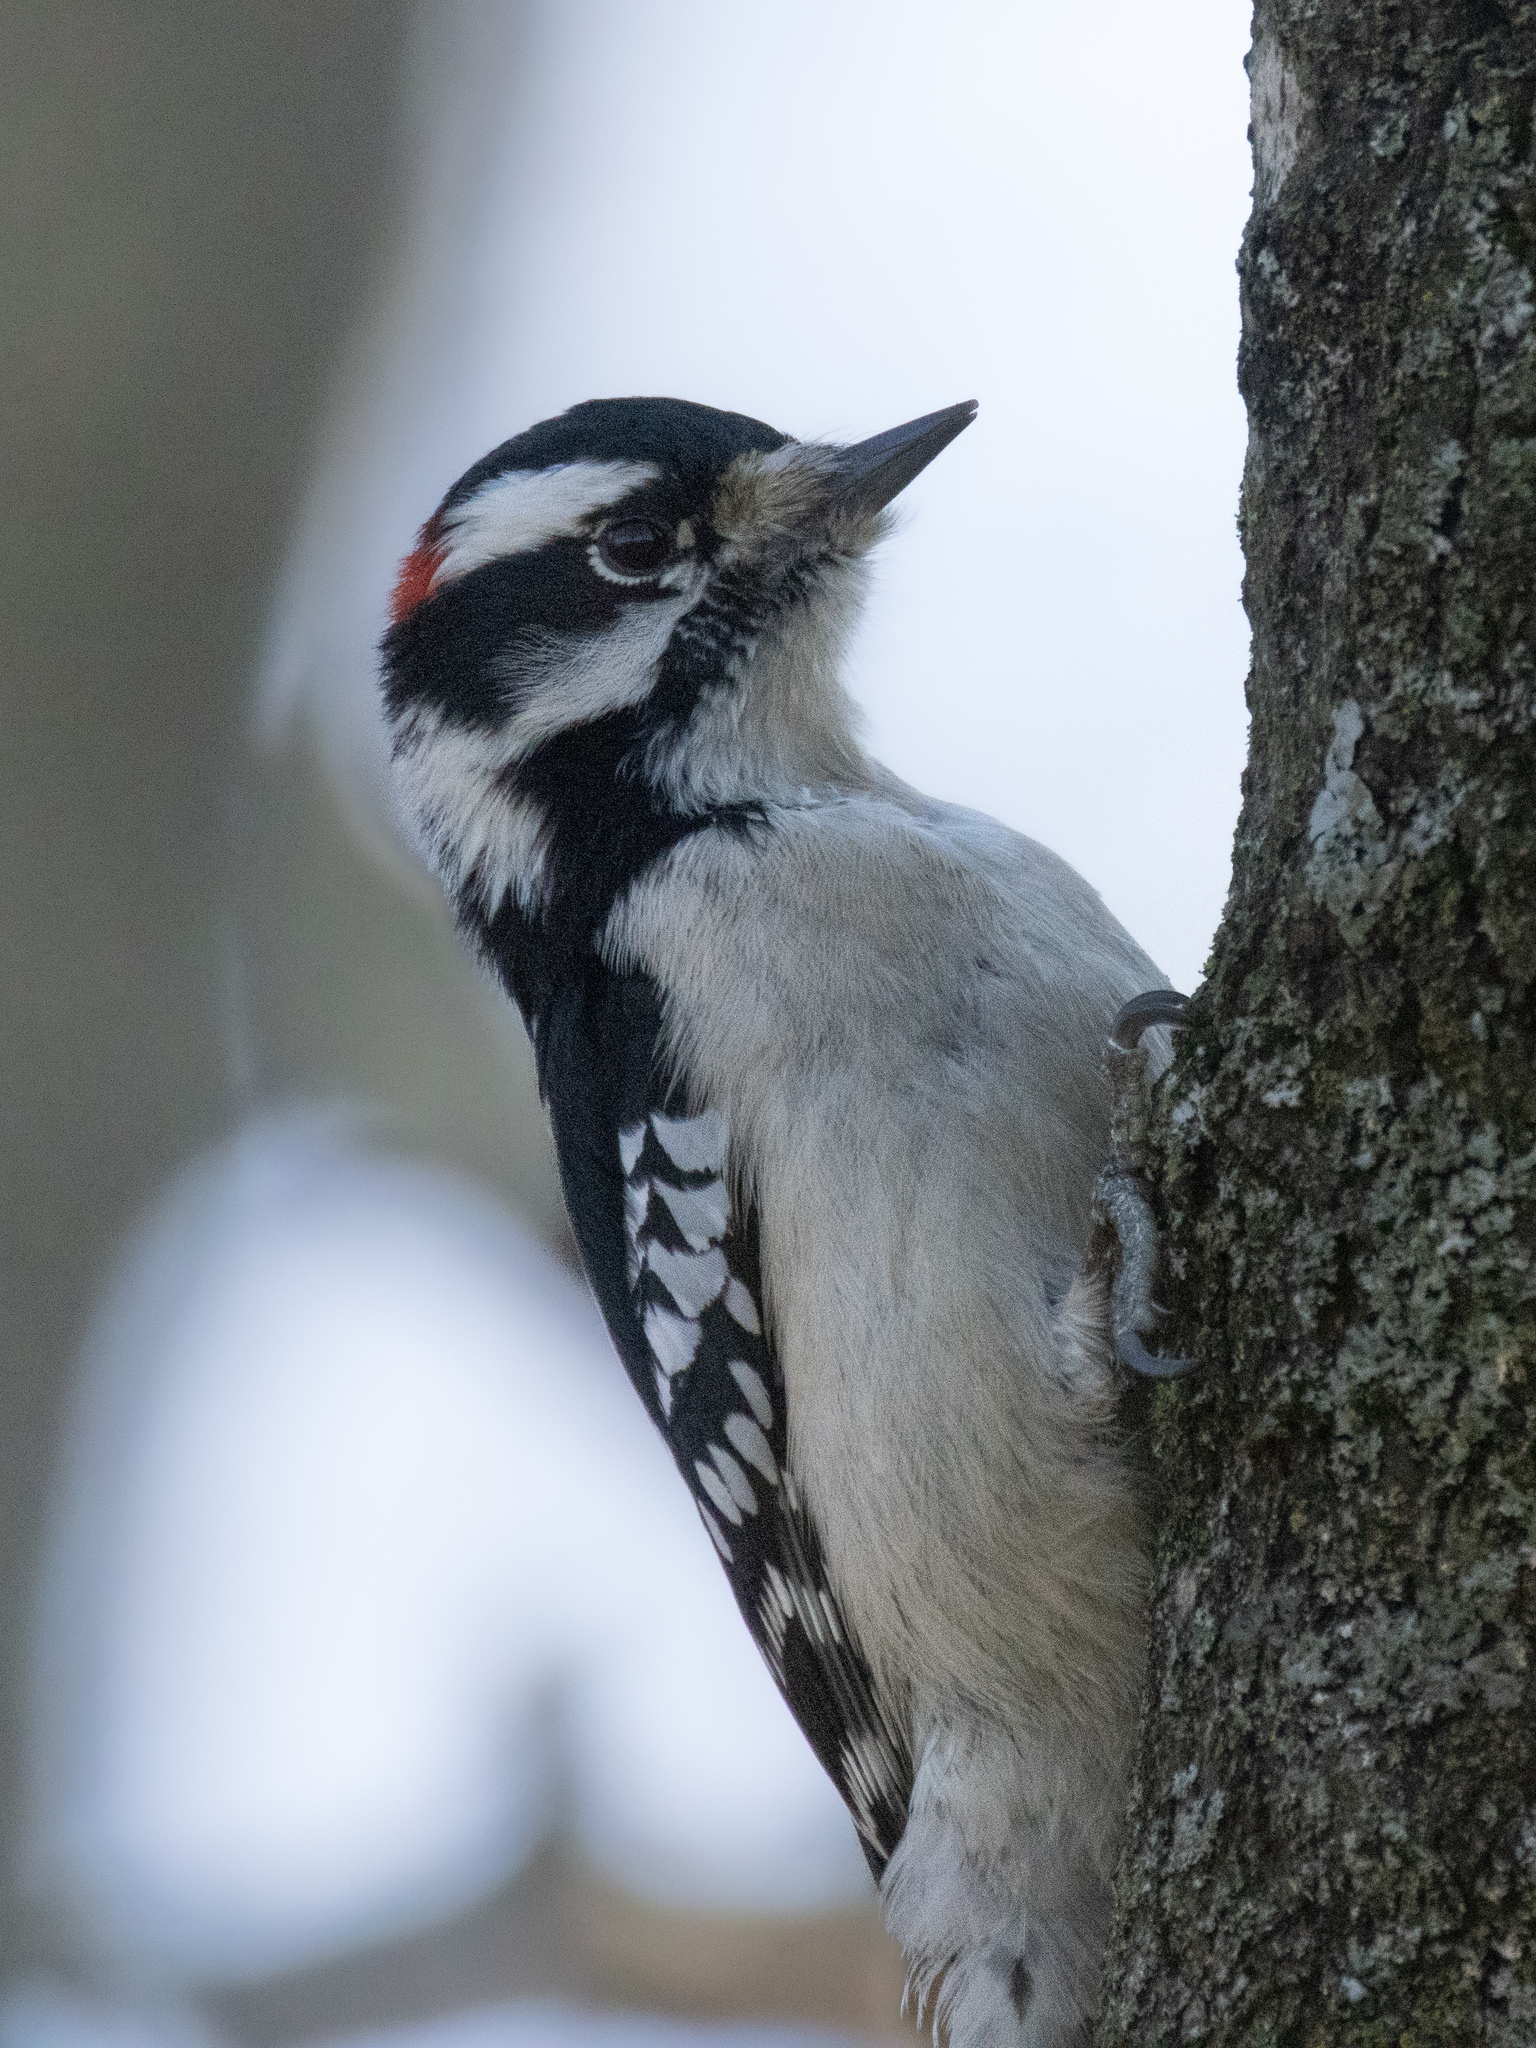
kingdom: Animalia
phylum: Chordata
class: Aves
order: Piciformes
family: Picidae
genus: Dryobates
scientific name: Dryobates pubescens
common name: Downy woodpecker
